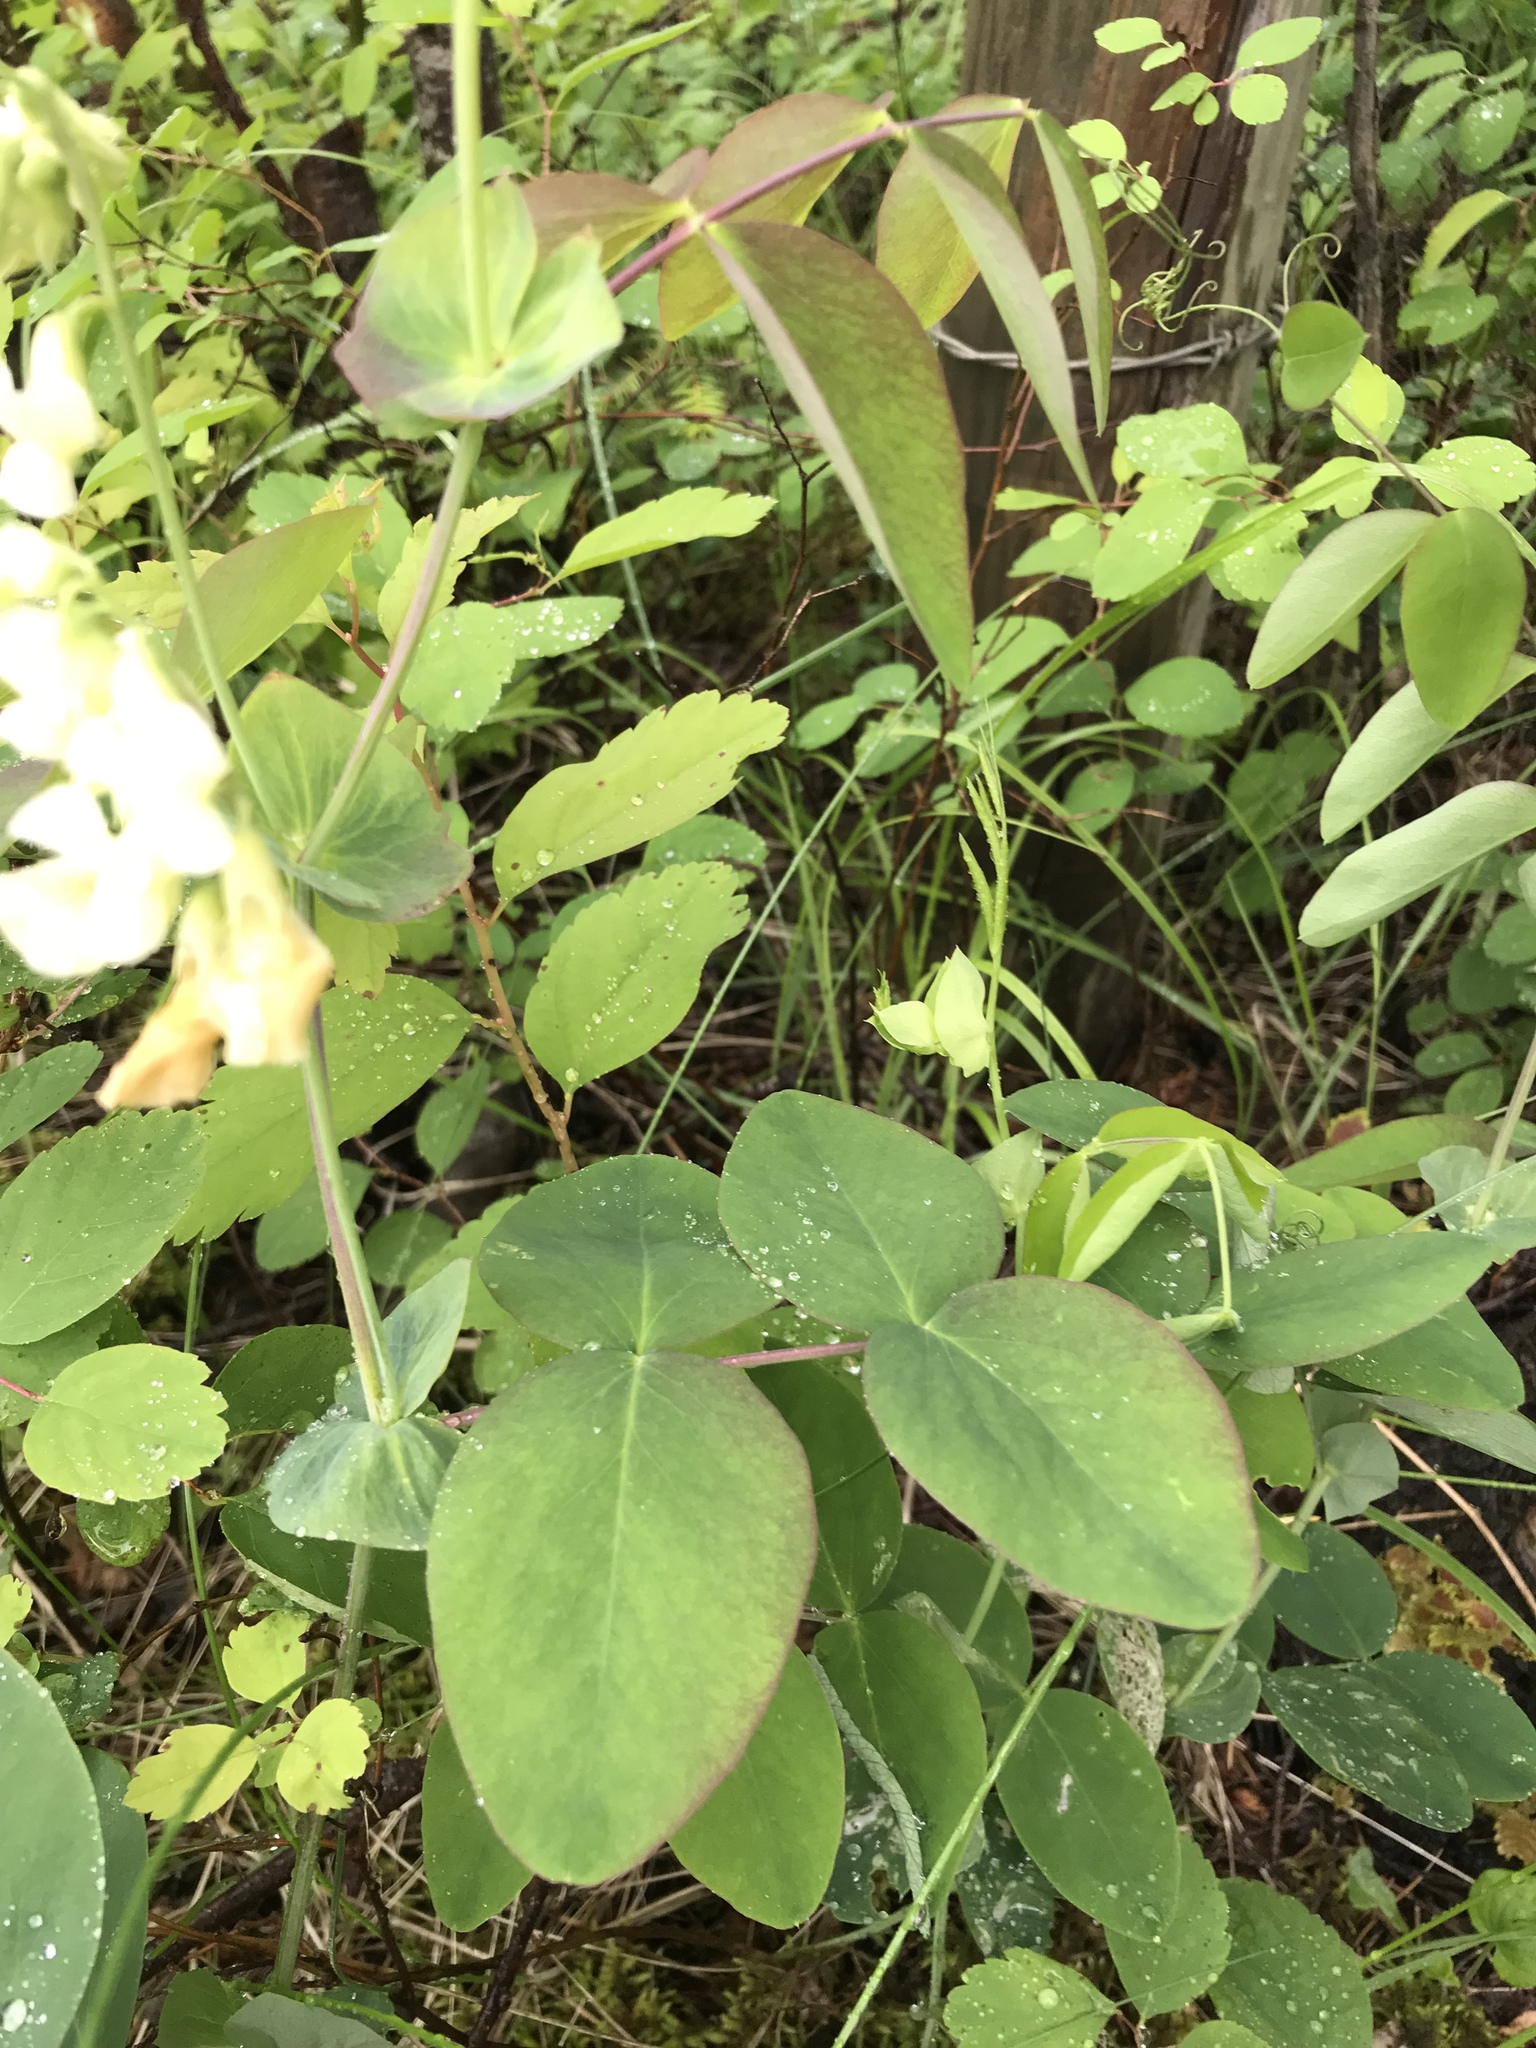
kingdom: Plantae
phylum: Tracheophyta
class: Magnoliopsida
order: Fabales
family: Fabaceae
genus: Lathyrus
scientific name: Lathyrus ochroleucus
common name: Pale vetchling
